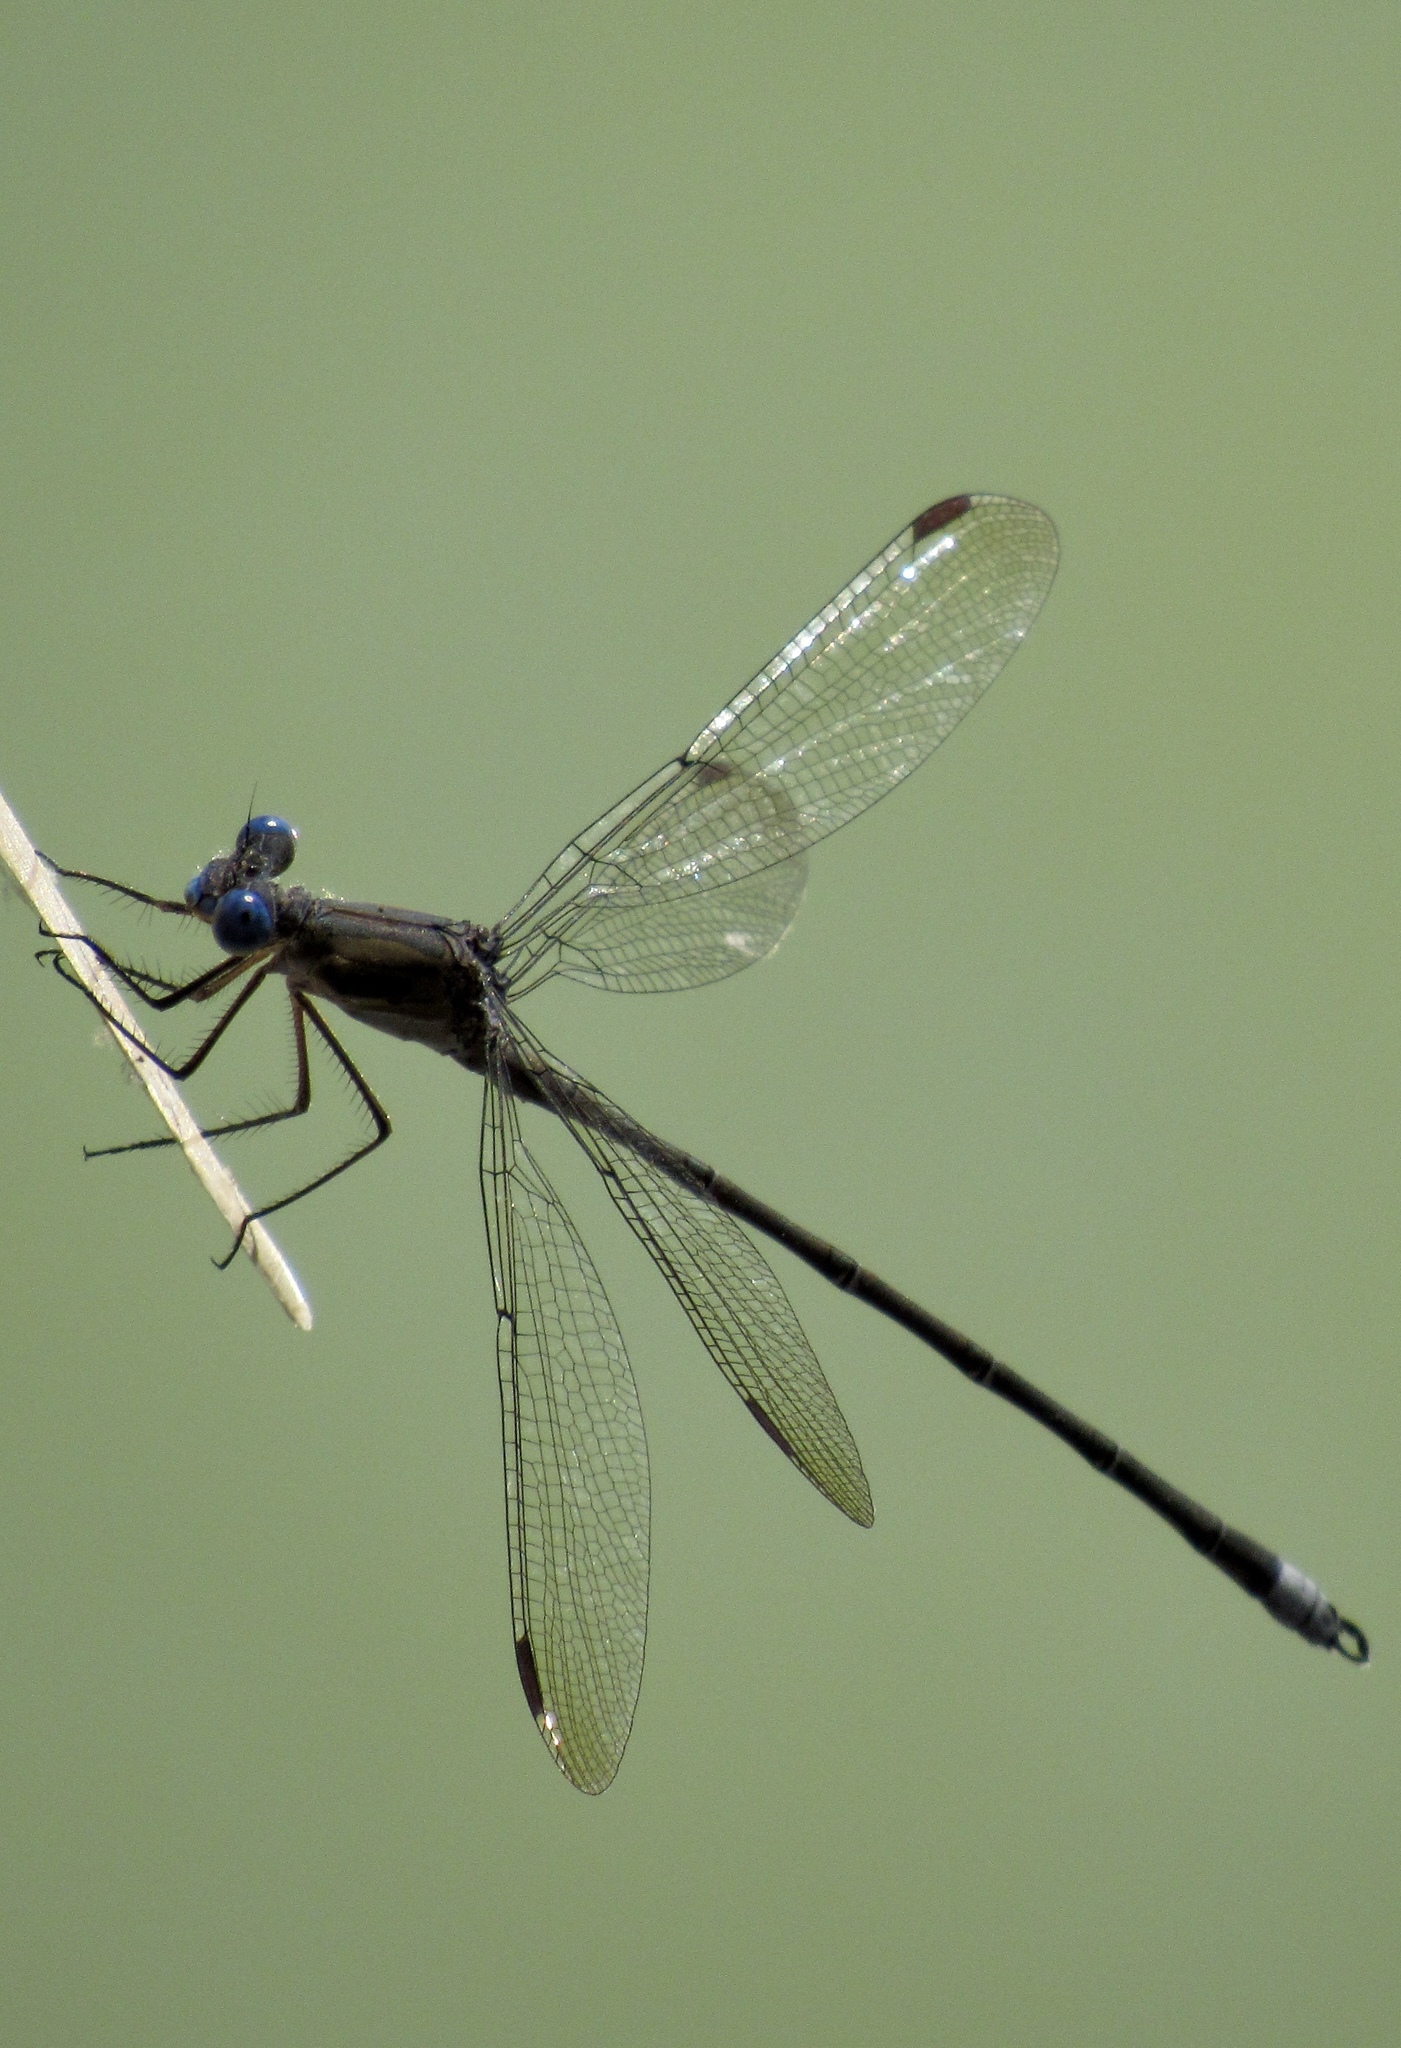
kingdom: Animalia
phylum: Arthropoda
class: Insecta
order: Odonata
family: Lestidae
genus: Archilestes
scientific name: Archilestes californicus
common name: California spreadwing
